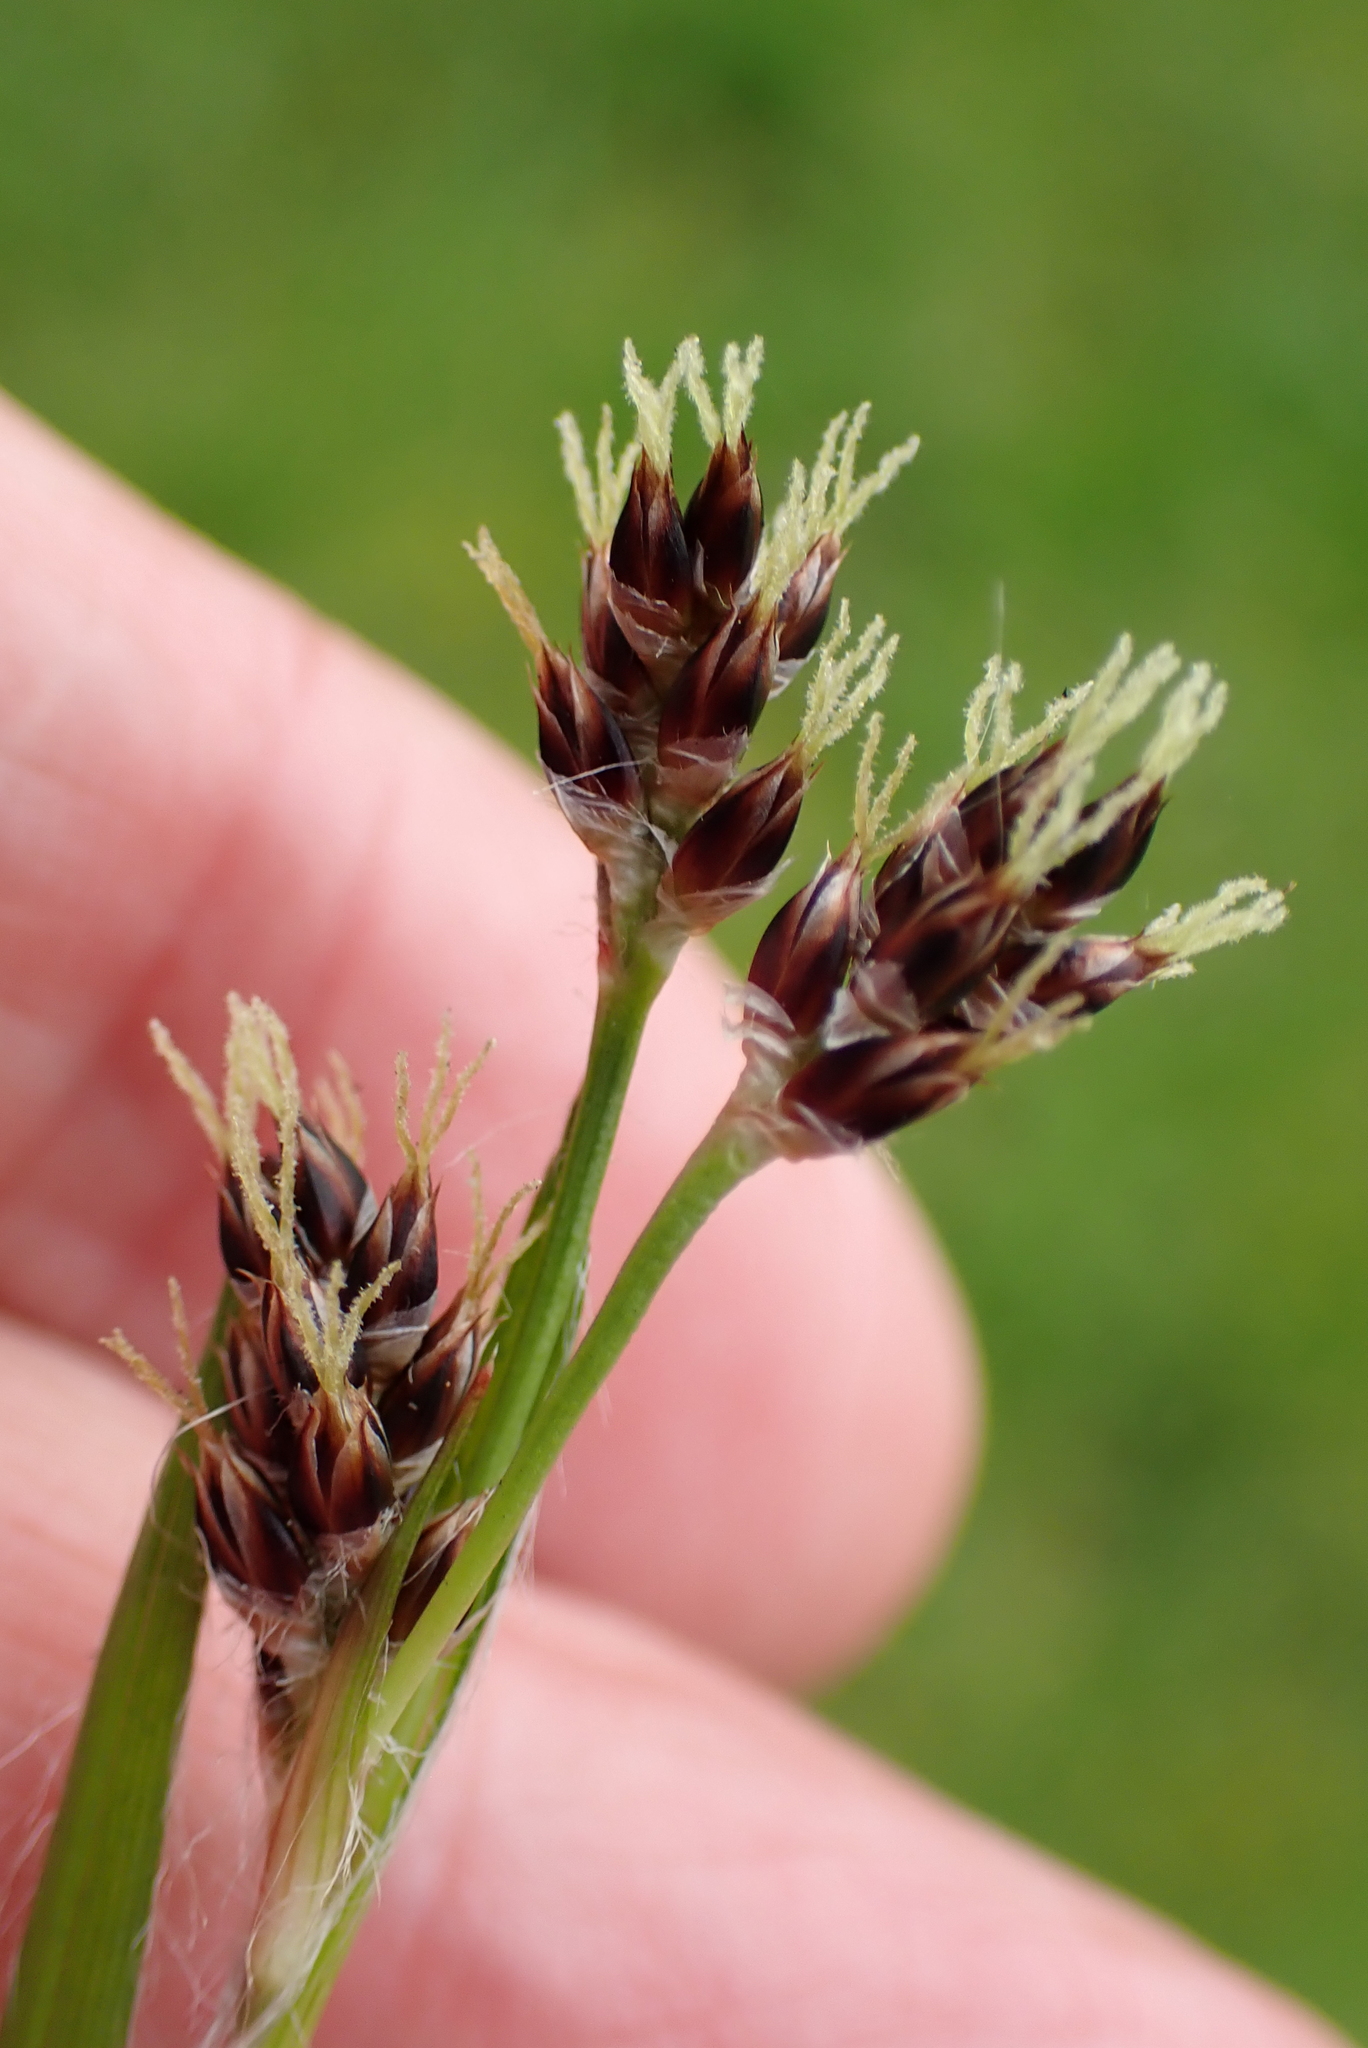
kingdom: Plantae
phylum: Tracheophyta
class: Liliopsida
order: Poales
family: Juncaceae
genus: Luzula
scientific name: Luzula campestris
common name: Field wood-rush
